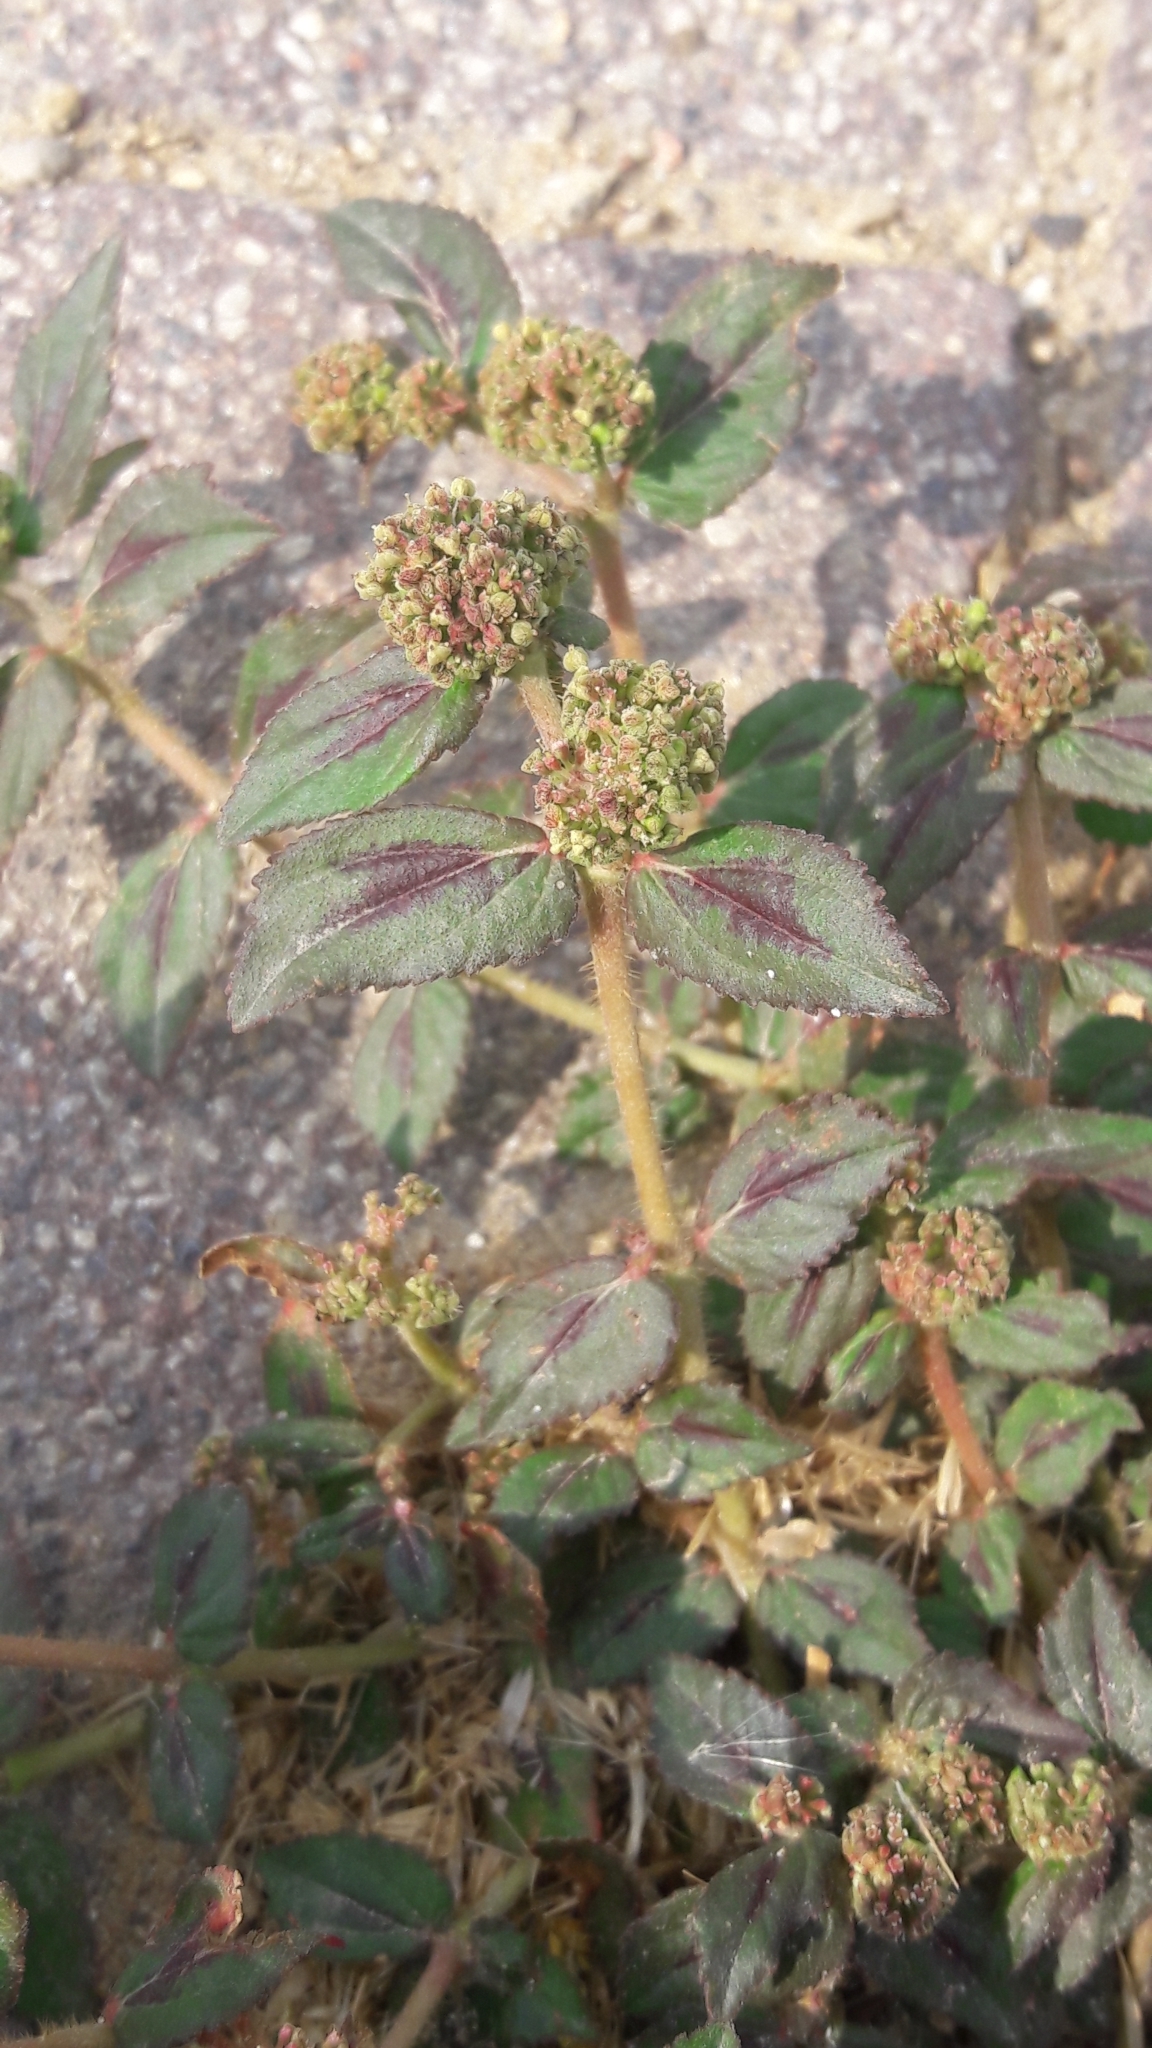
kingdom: Plantae
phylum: Tracheophyta
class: Magnoliopsida
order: Malpighiales
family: Euphorbiaceae
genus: Euphorbia
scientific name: Euphorbia hirta
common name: Pillpod sandmat
